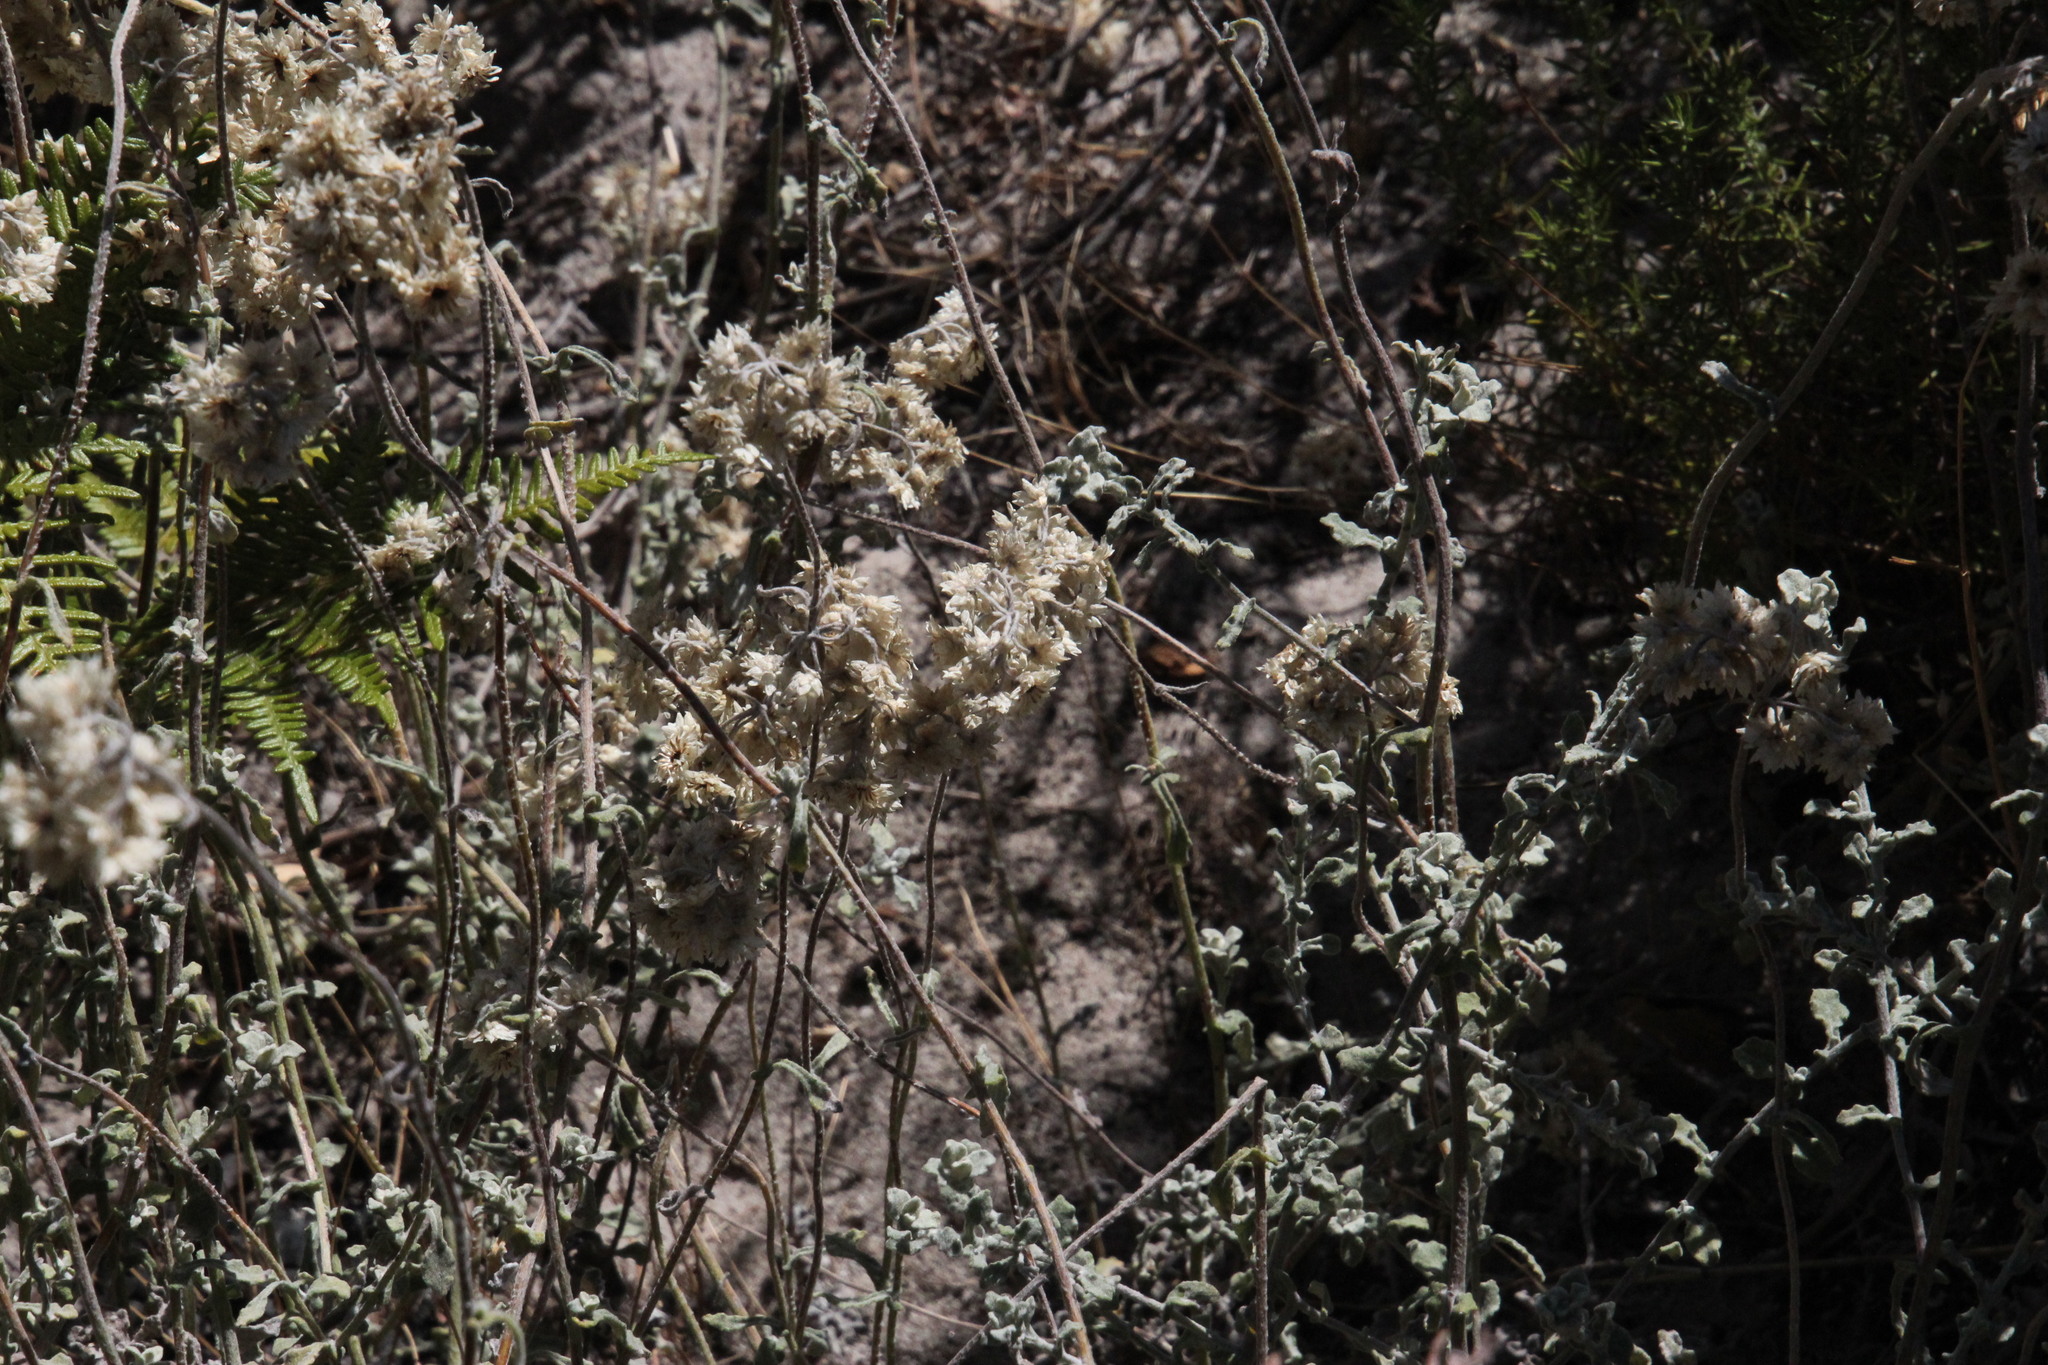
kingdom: Plantae
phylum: Tracheophyta
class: Magnoliopsida
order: Asterales
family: Asteraceae
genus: Helichrysum
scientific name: Helichrysum pandurifolium
